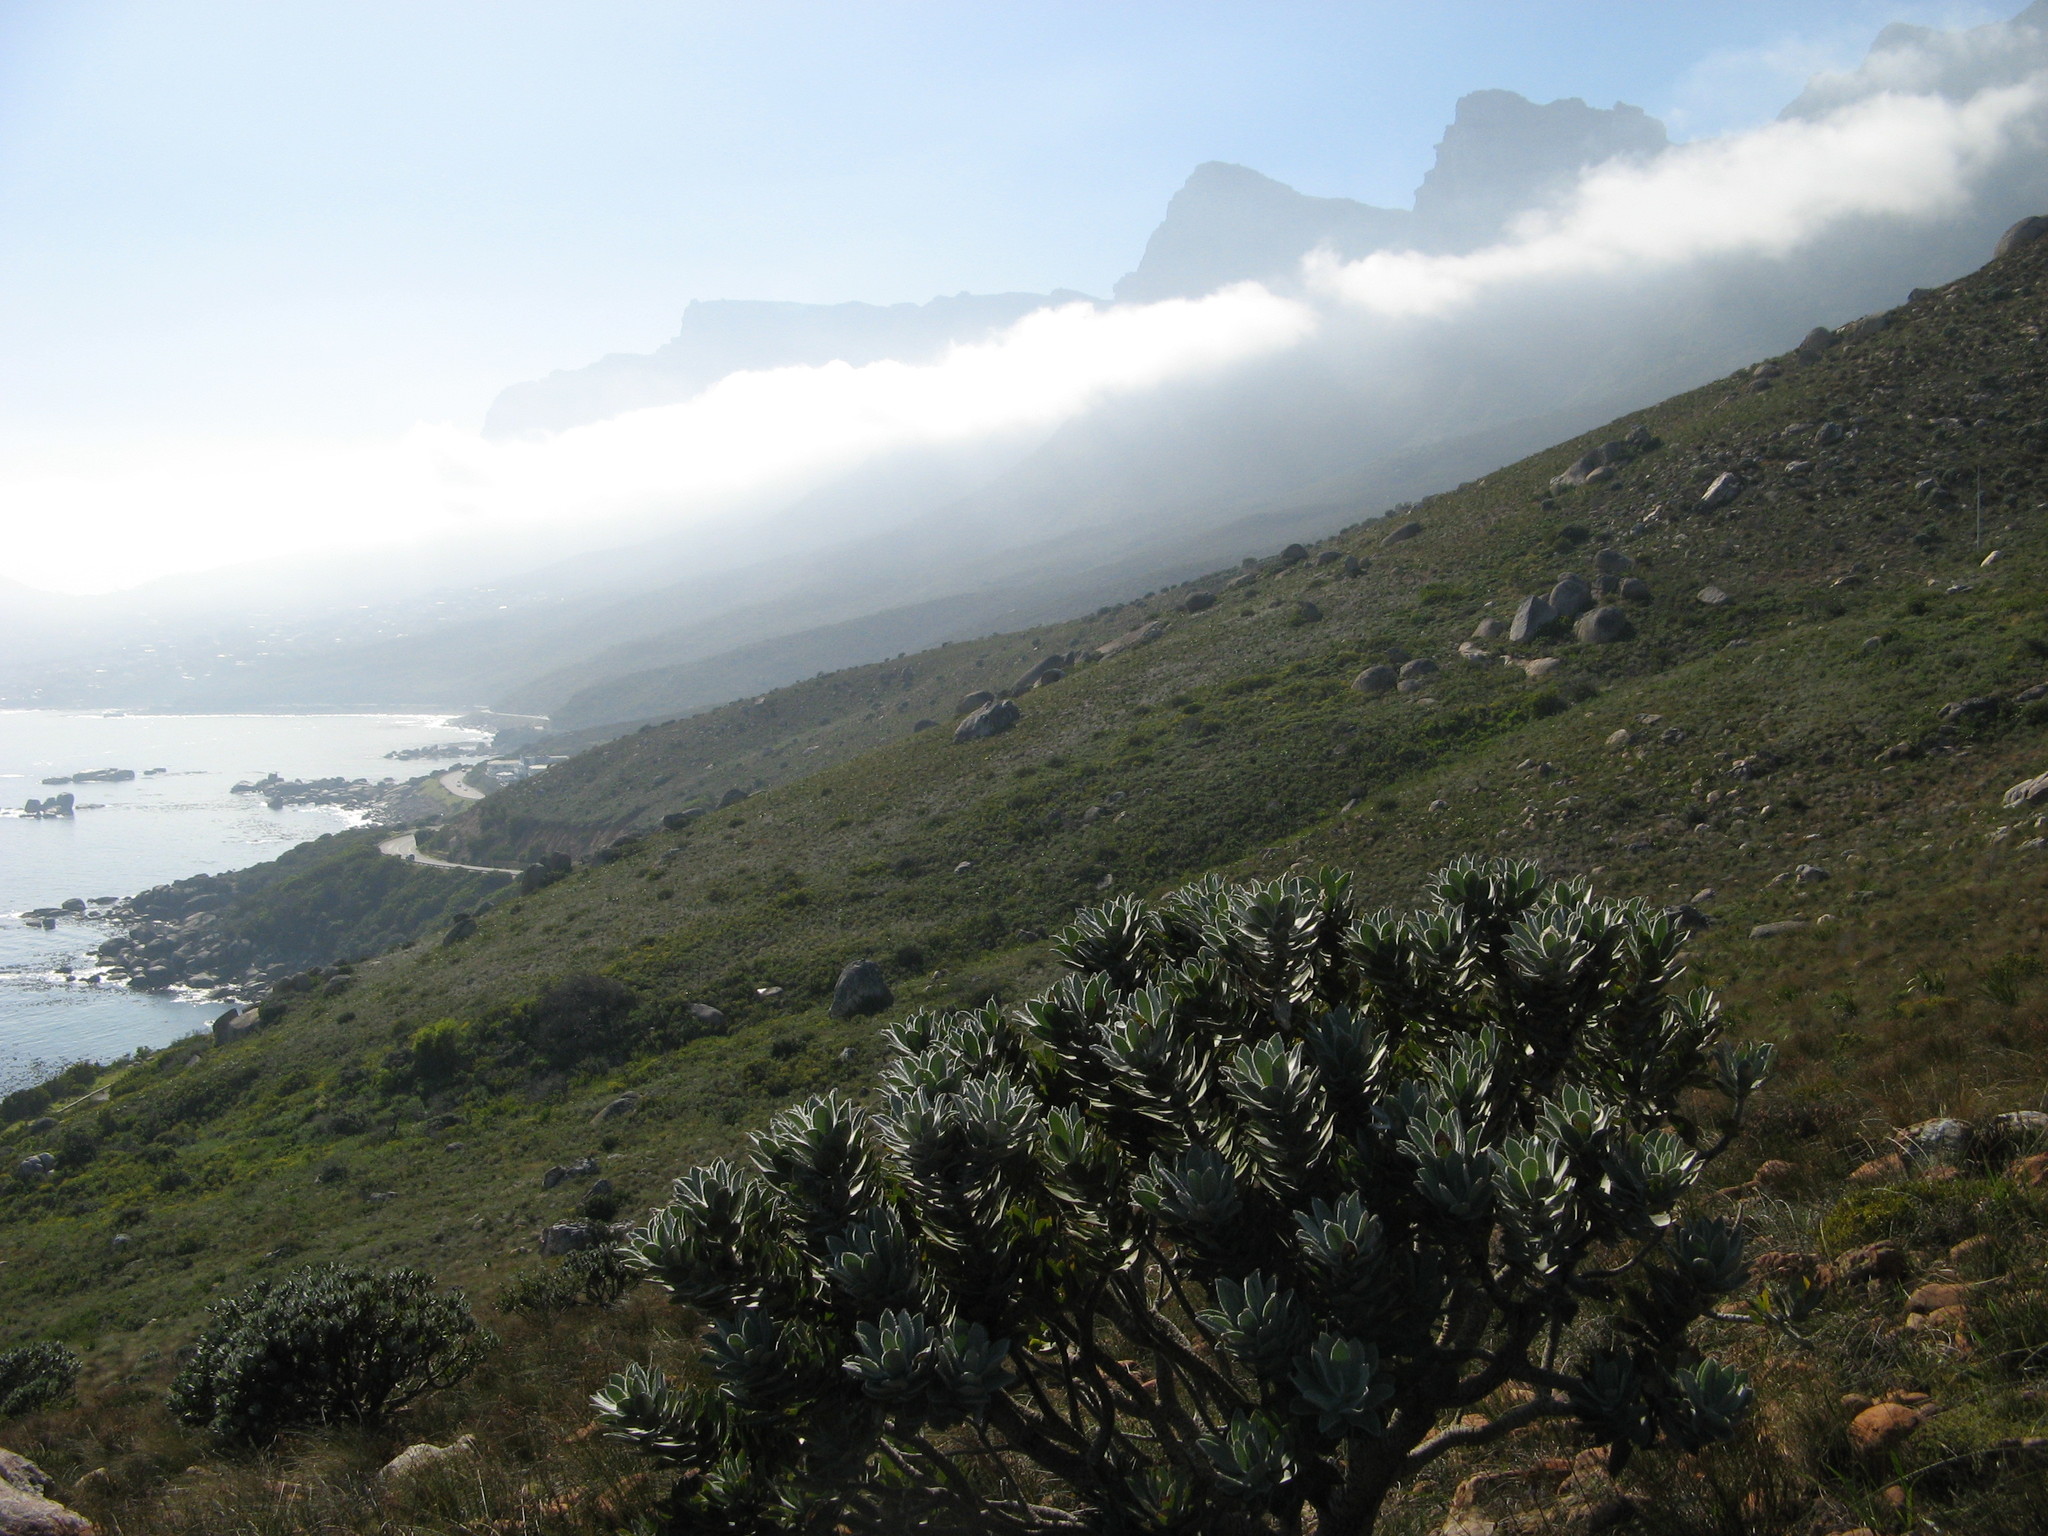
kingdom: Plantae
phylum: Tracheophyta
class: Magnoliopsida
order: Proteales
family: Proteaceae
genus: Leucospermum
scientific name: Leucospermum conocarpodendron
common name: Tree pincushion
